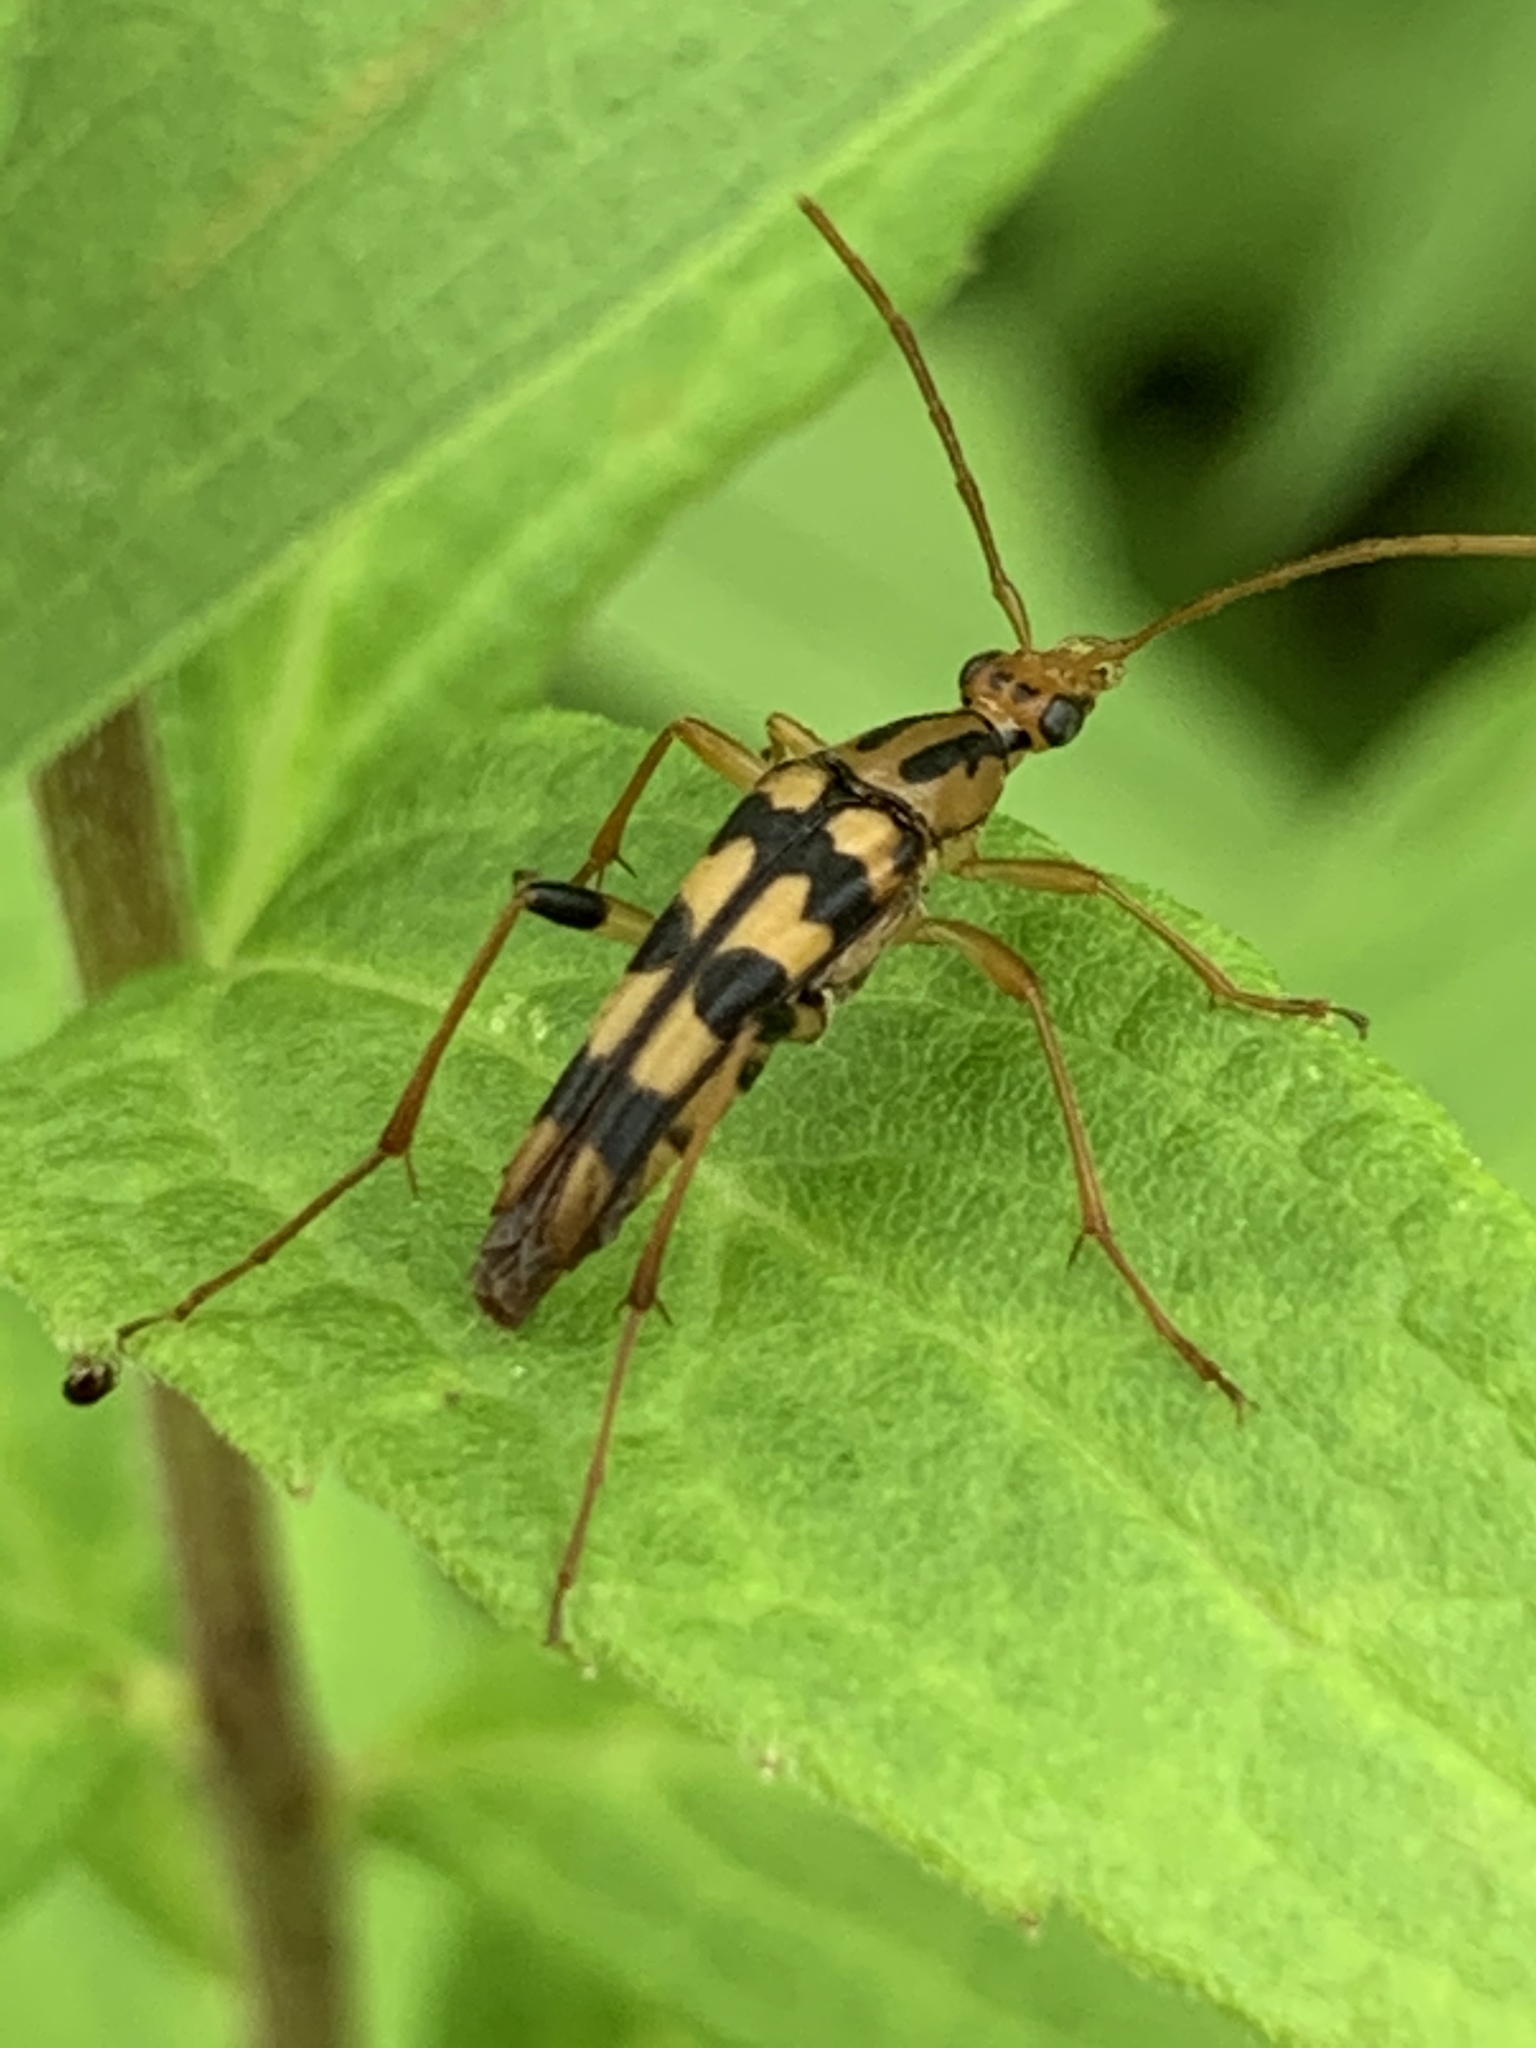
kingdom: Animalia
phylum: Arthropoda
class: Insecta
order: Coleoptera
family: Cerambycidae
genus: Strangalia
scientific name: Strangalia luteicornis
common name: Yellow-horned flower longhorn beetle
